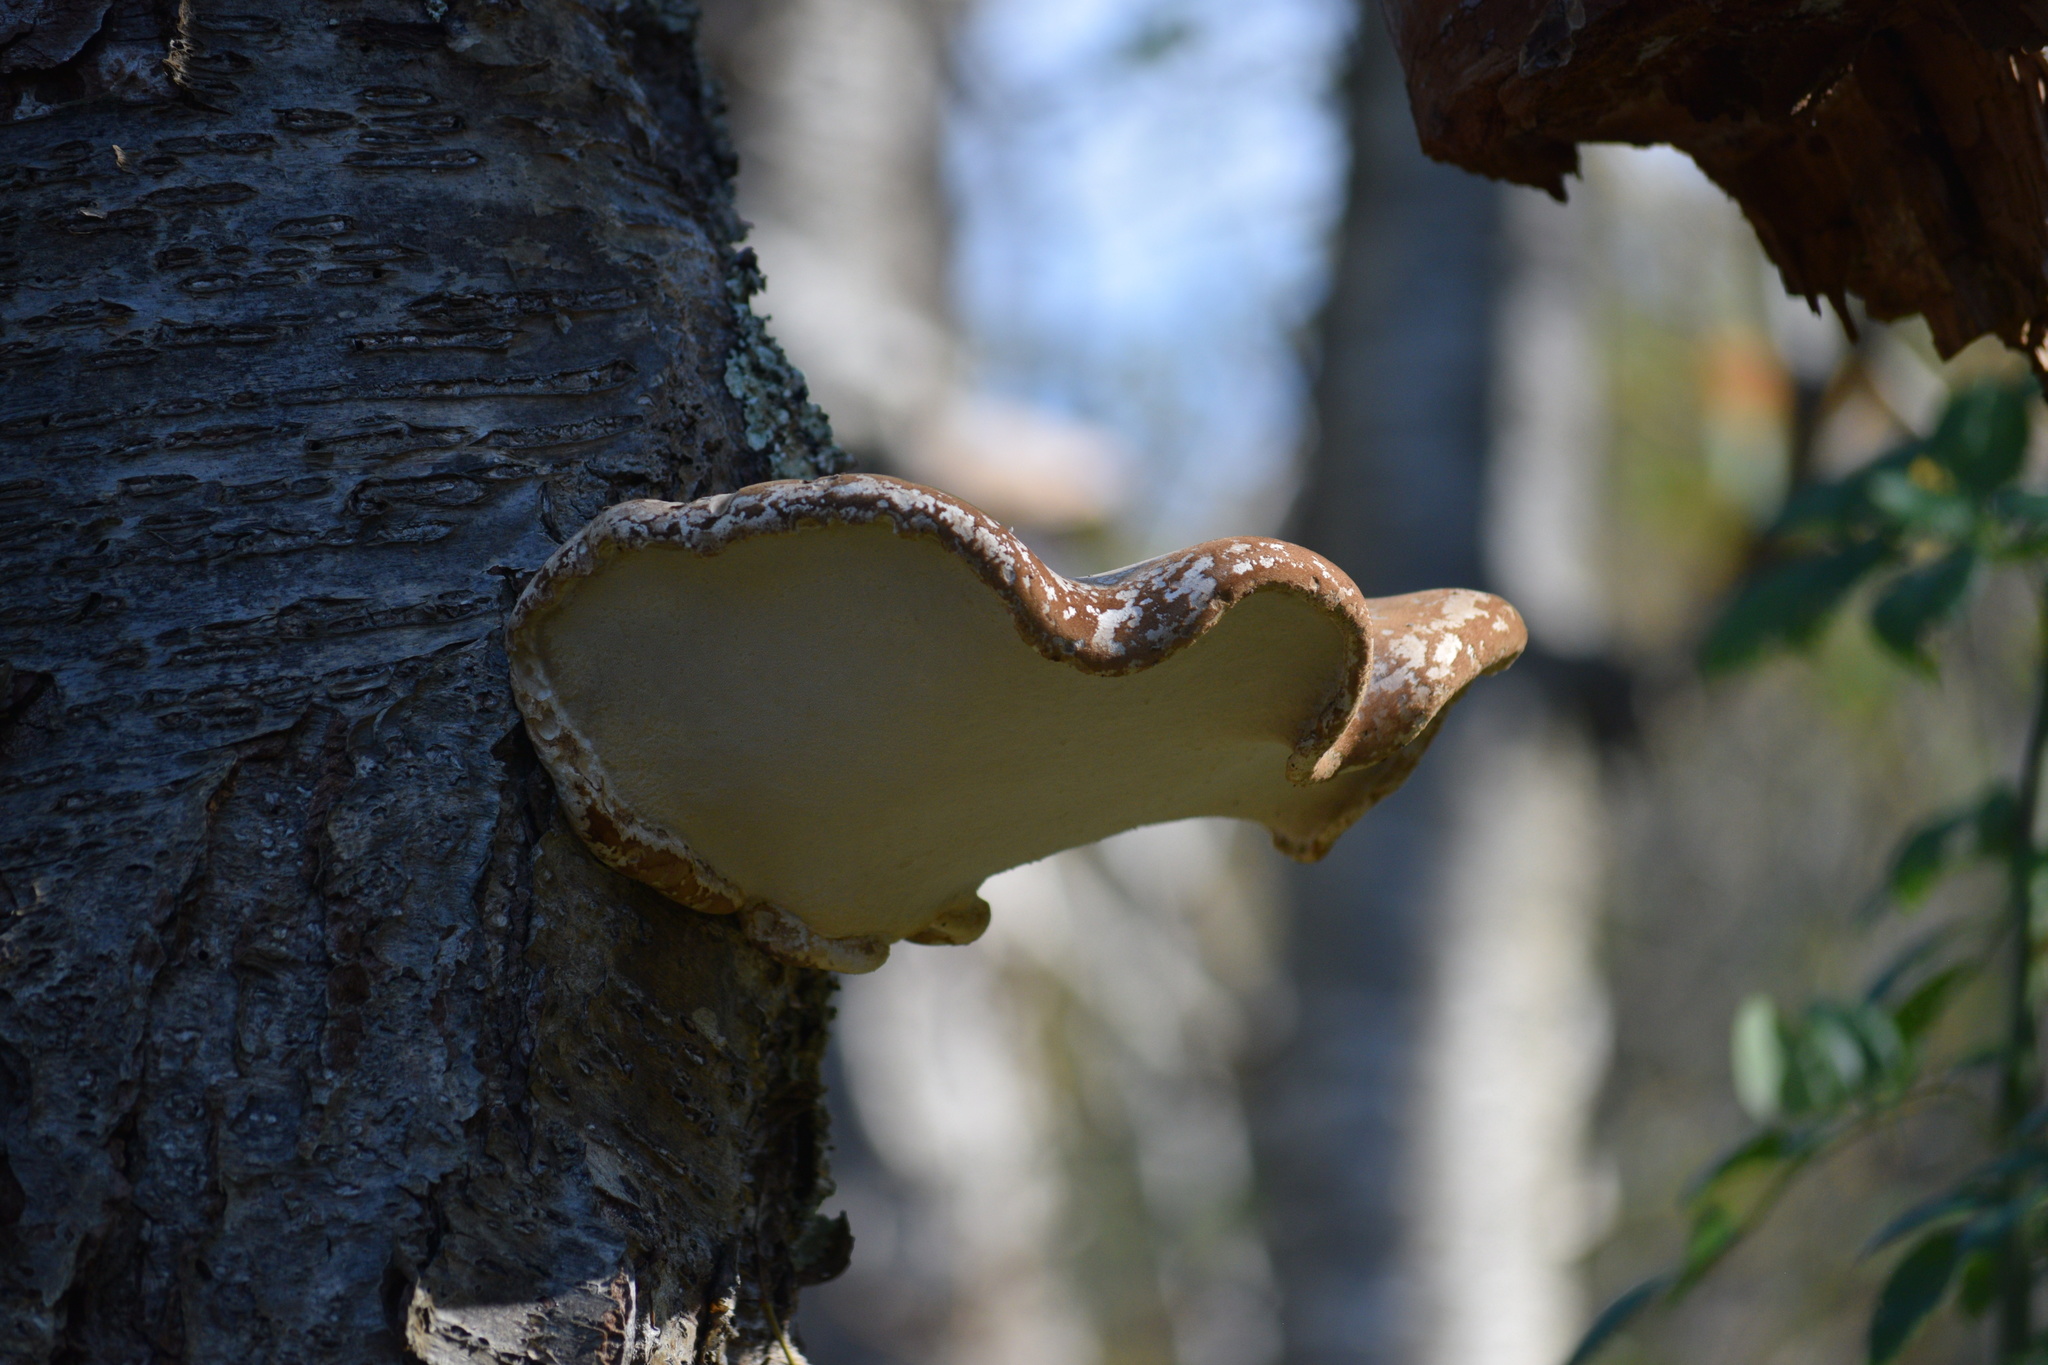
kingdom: Fungi
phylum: Basidiomycota
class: Agaricomycetes
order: Polyporales
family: Fomitopsidaceae
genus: Fomitopsis
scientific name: Fomitopsis betulina
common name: Birch polypore
